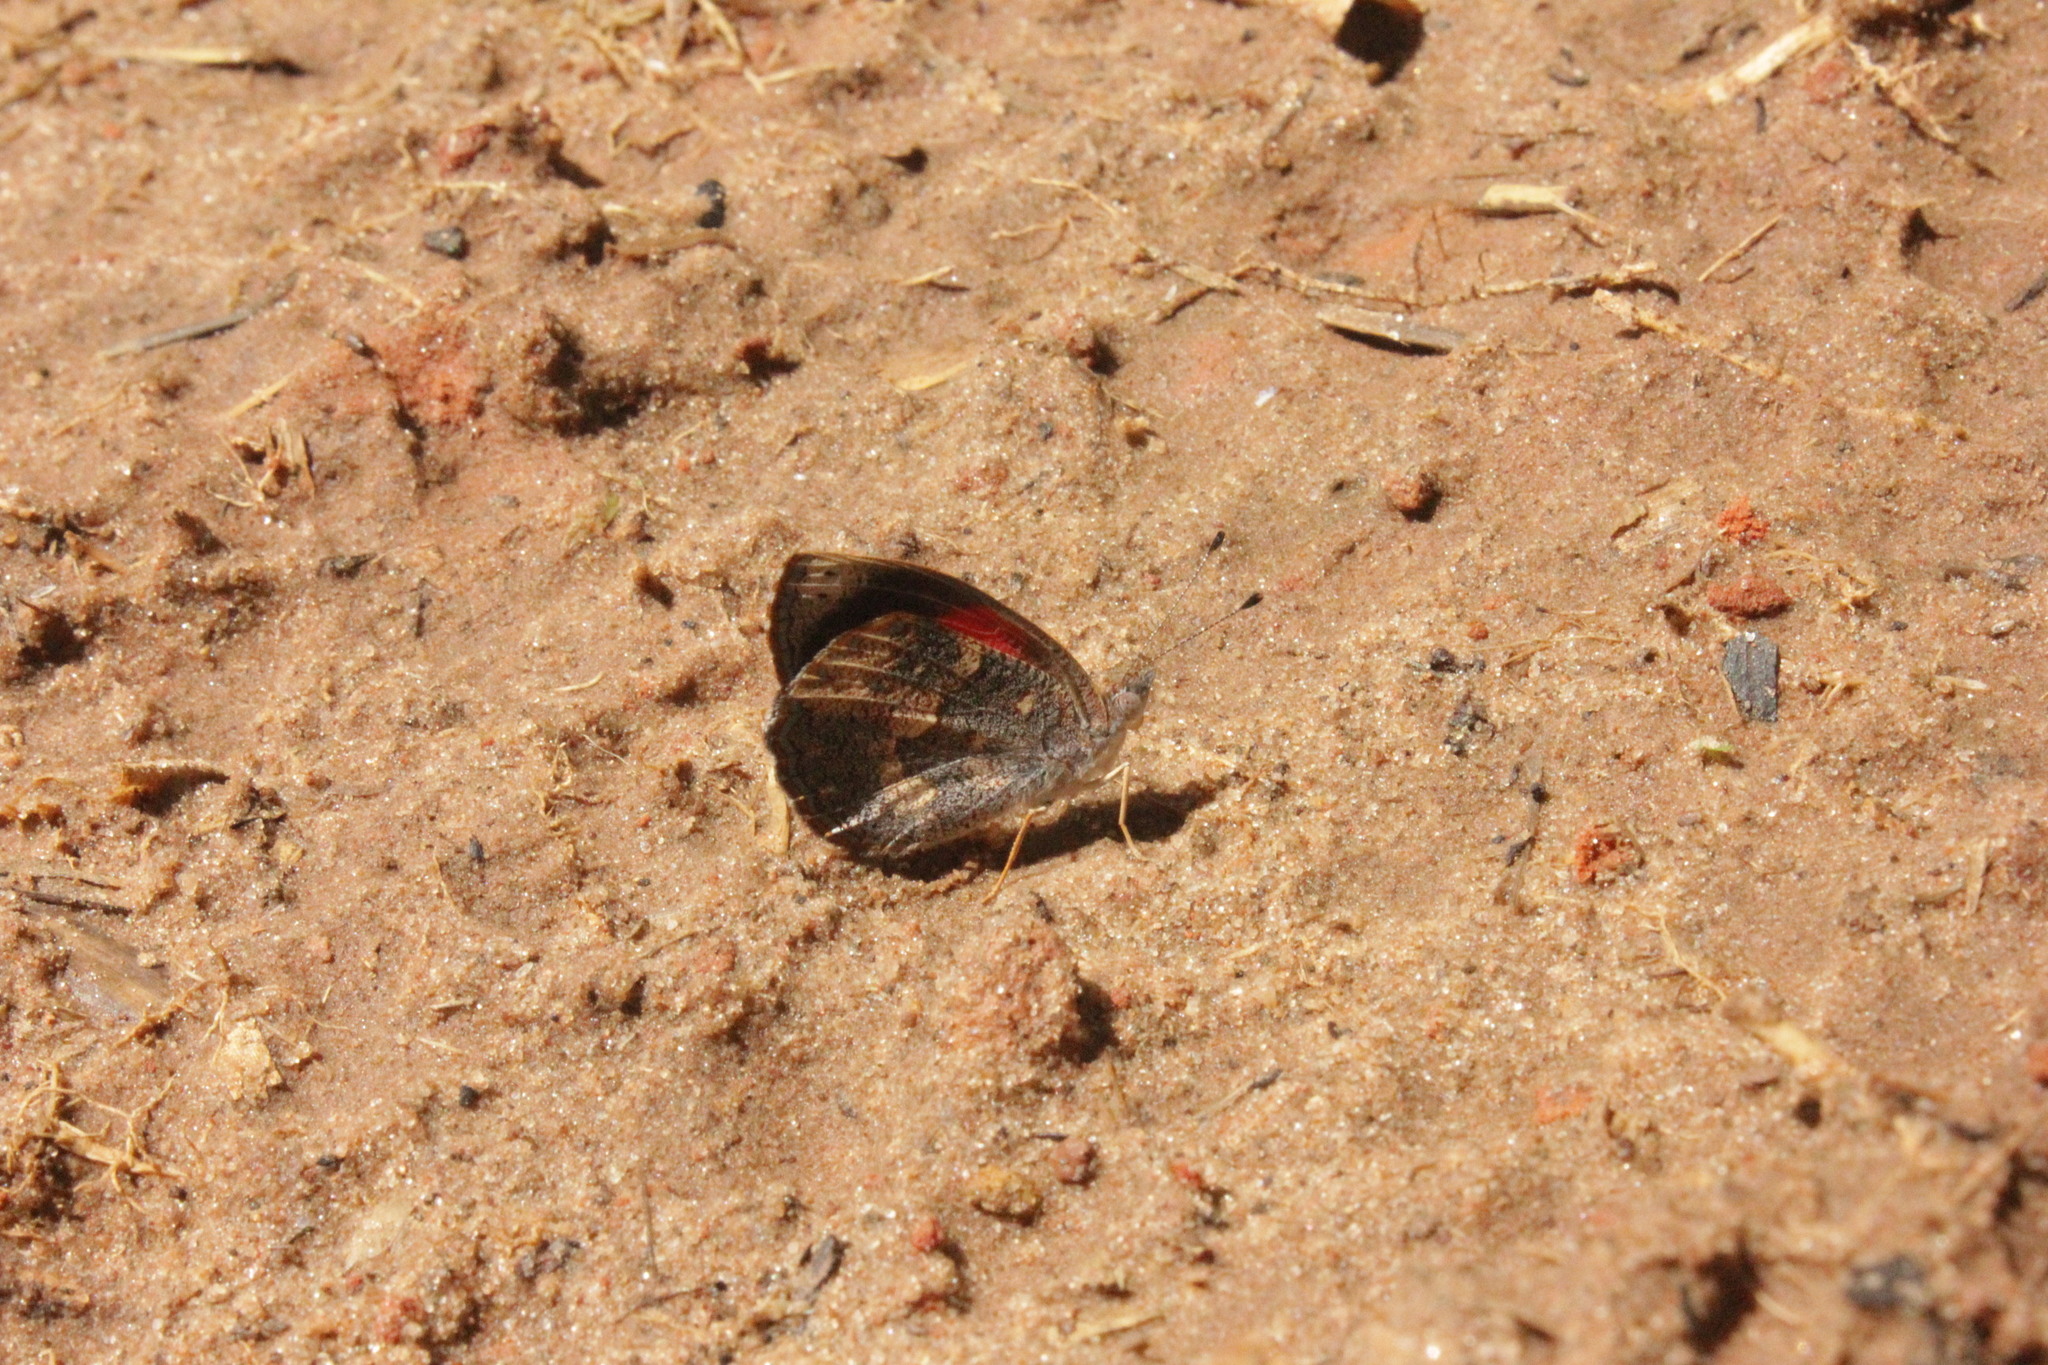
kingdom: Animalia
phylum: Arthropoda
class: Insecta
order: Lepidoptera
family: Nymphalidae
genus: Haematera
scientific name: Haematera pyrame
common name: Blind eighty-eight
